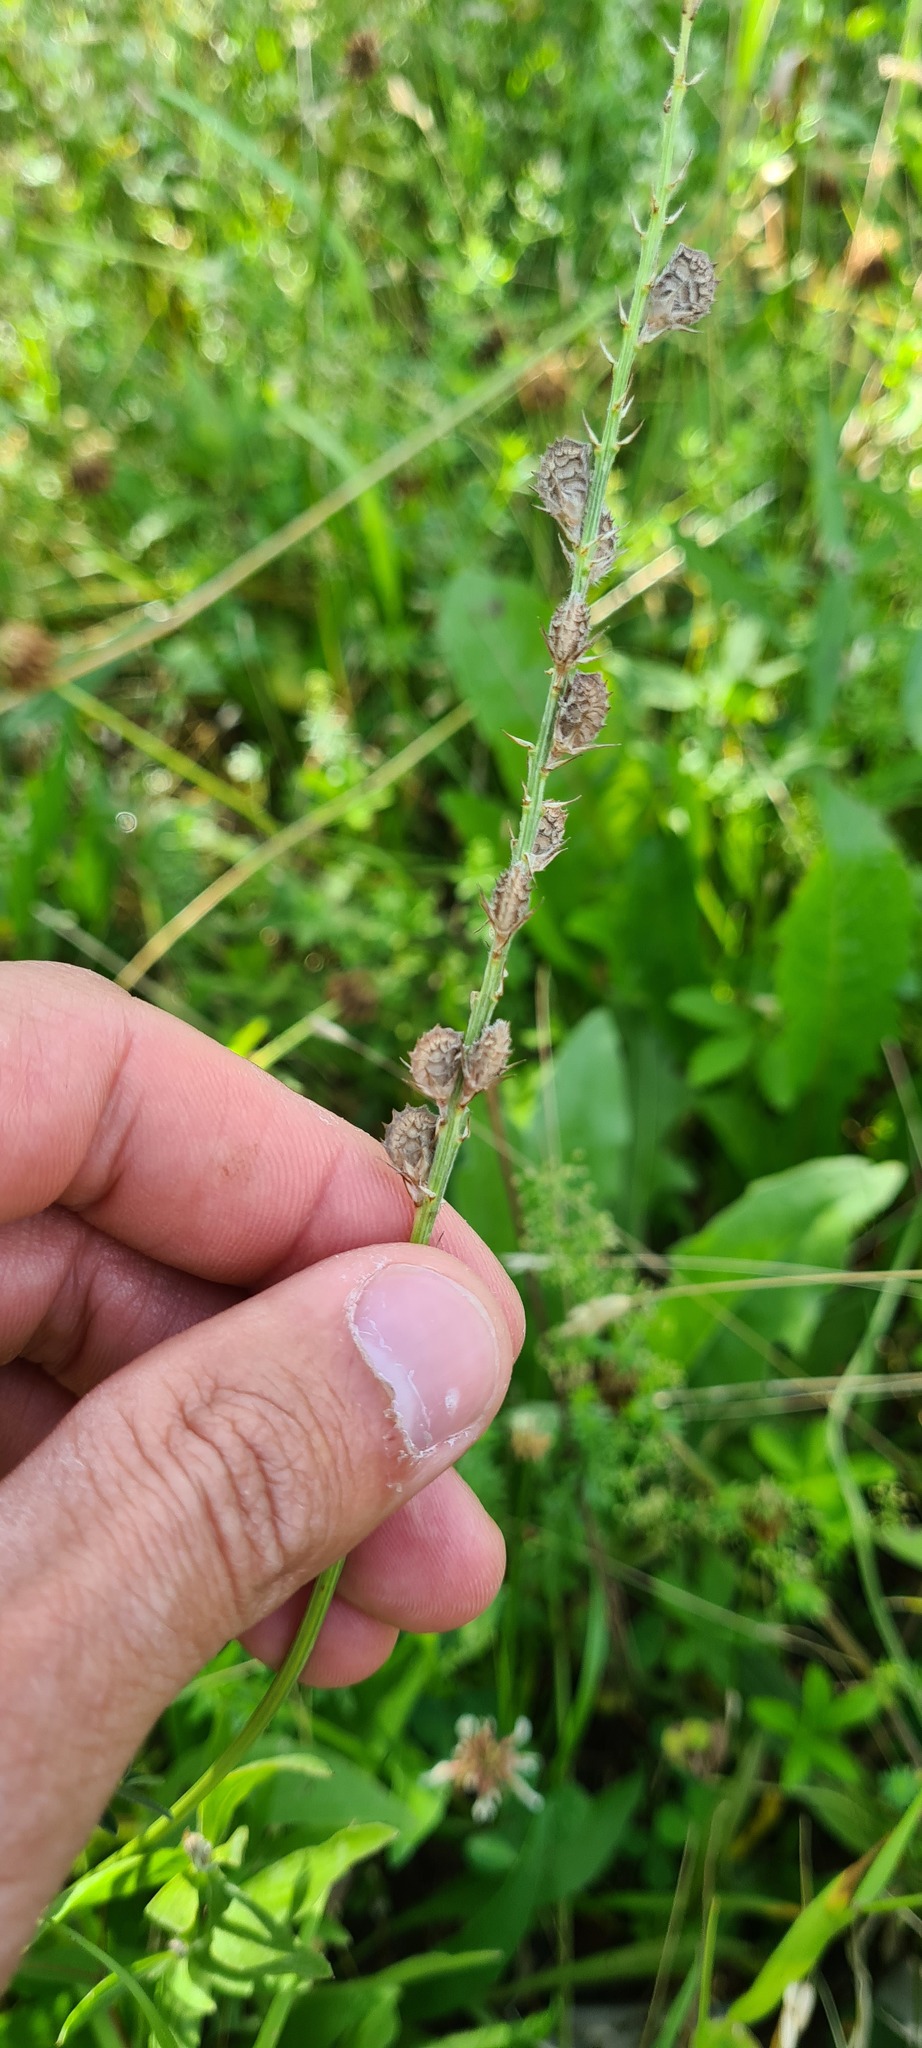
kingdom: Plantae
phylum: Tracheophyta
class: Magnoliopsida
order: Fabales
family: Fabaceae
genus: Onobrychis
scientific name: Onobrychis viciifolia
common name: Sainfoin
